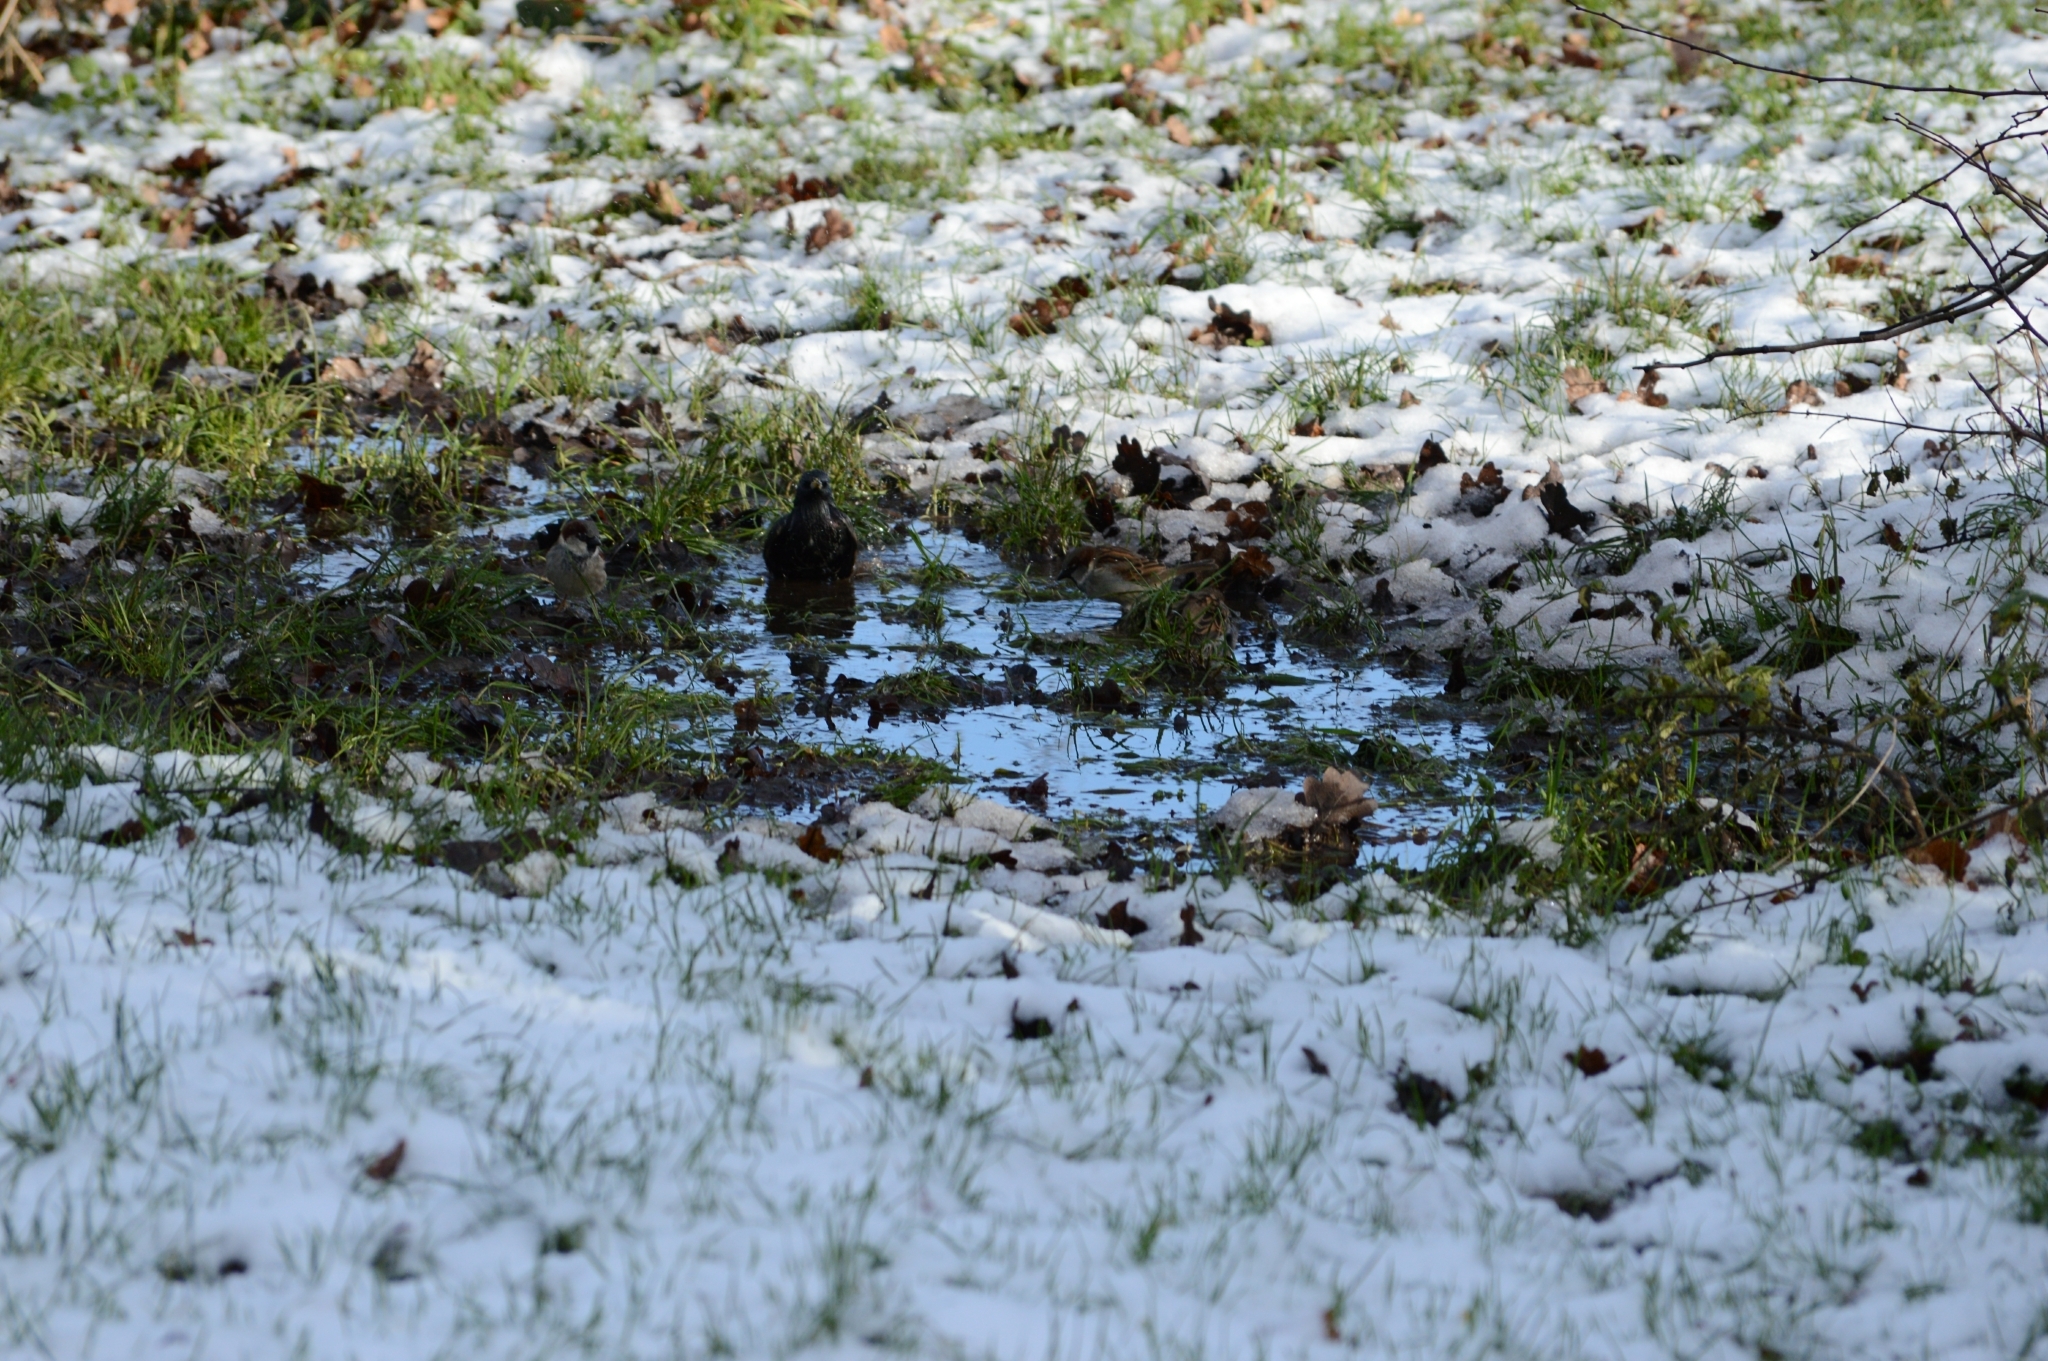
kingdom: Animalia
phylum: Chordata
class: Aves
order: Passeriformes
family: Sturnidae
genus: Sturnus
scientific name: Sturnus vulgaris
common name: Common starling
